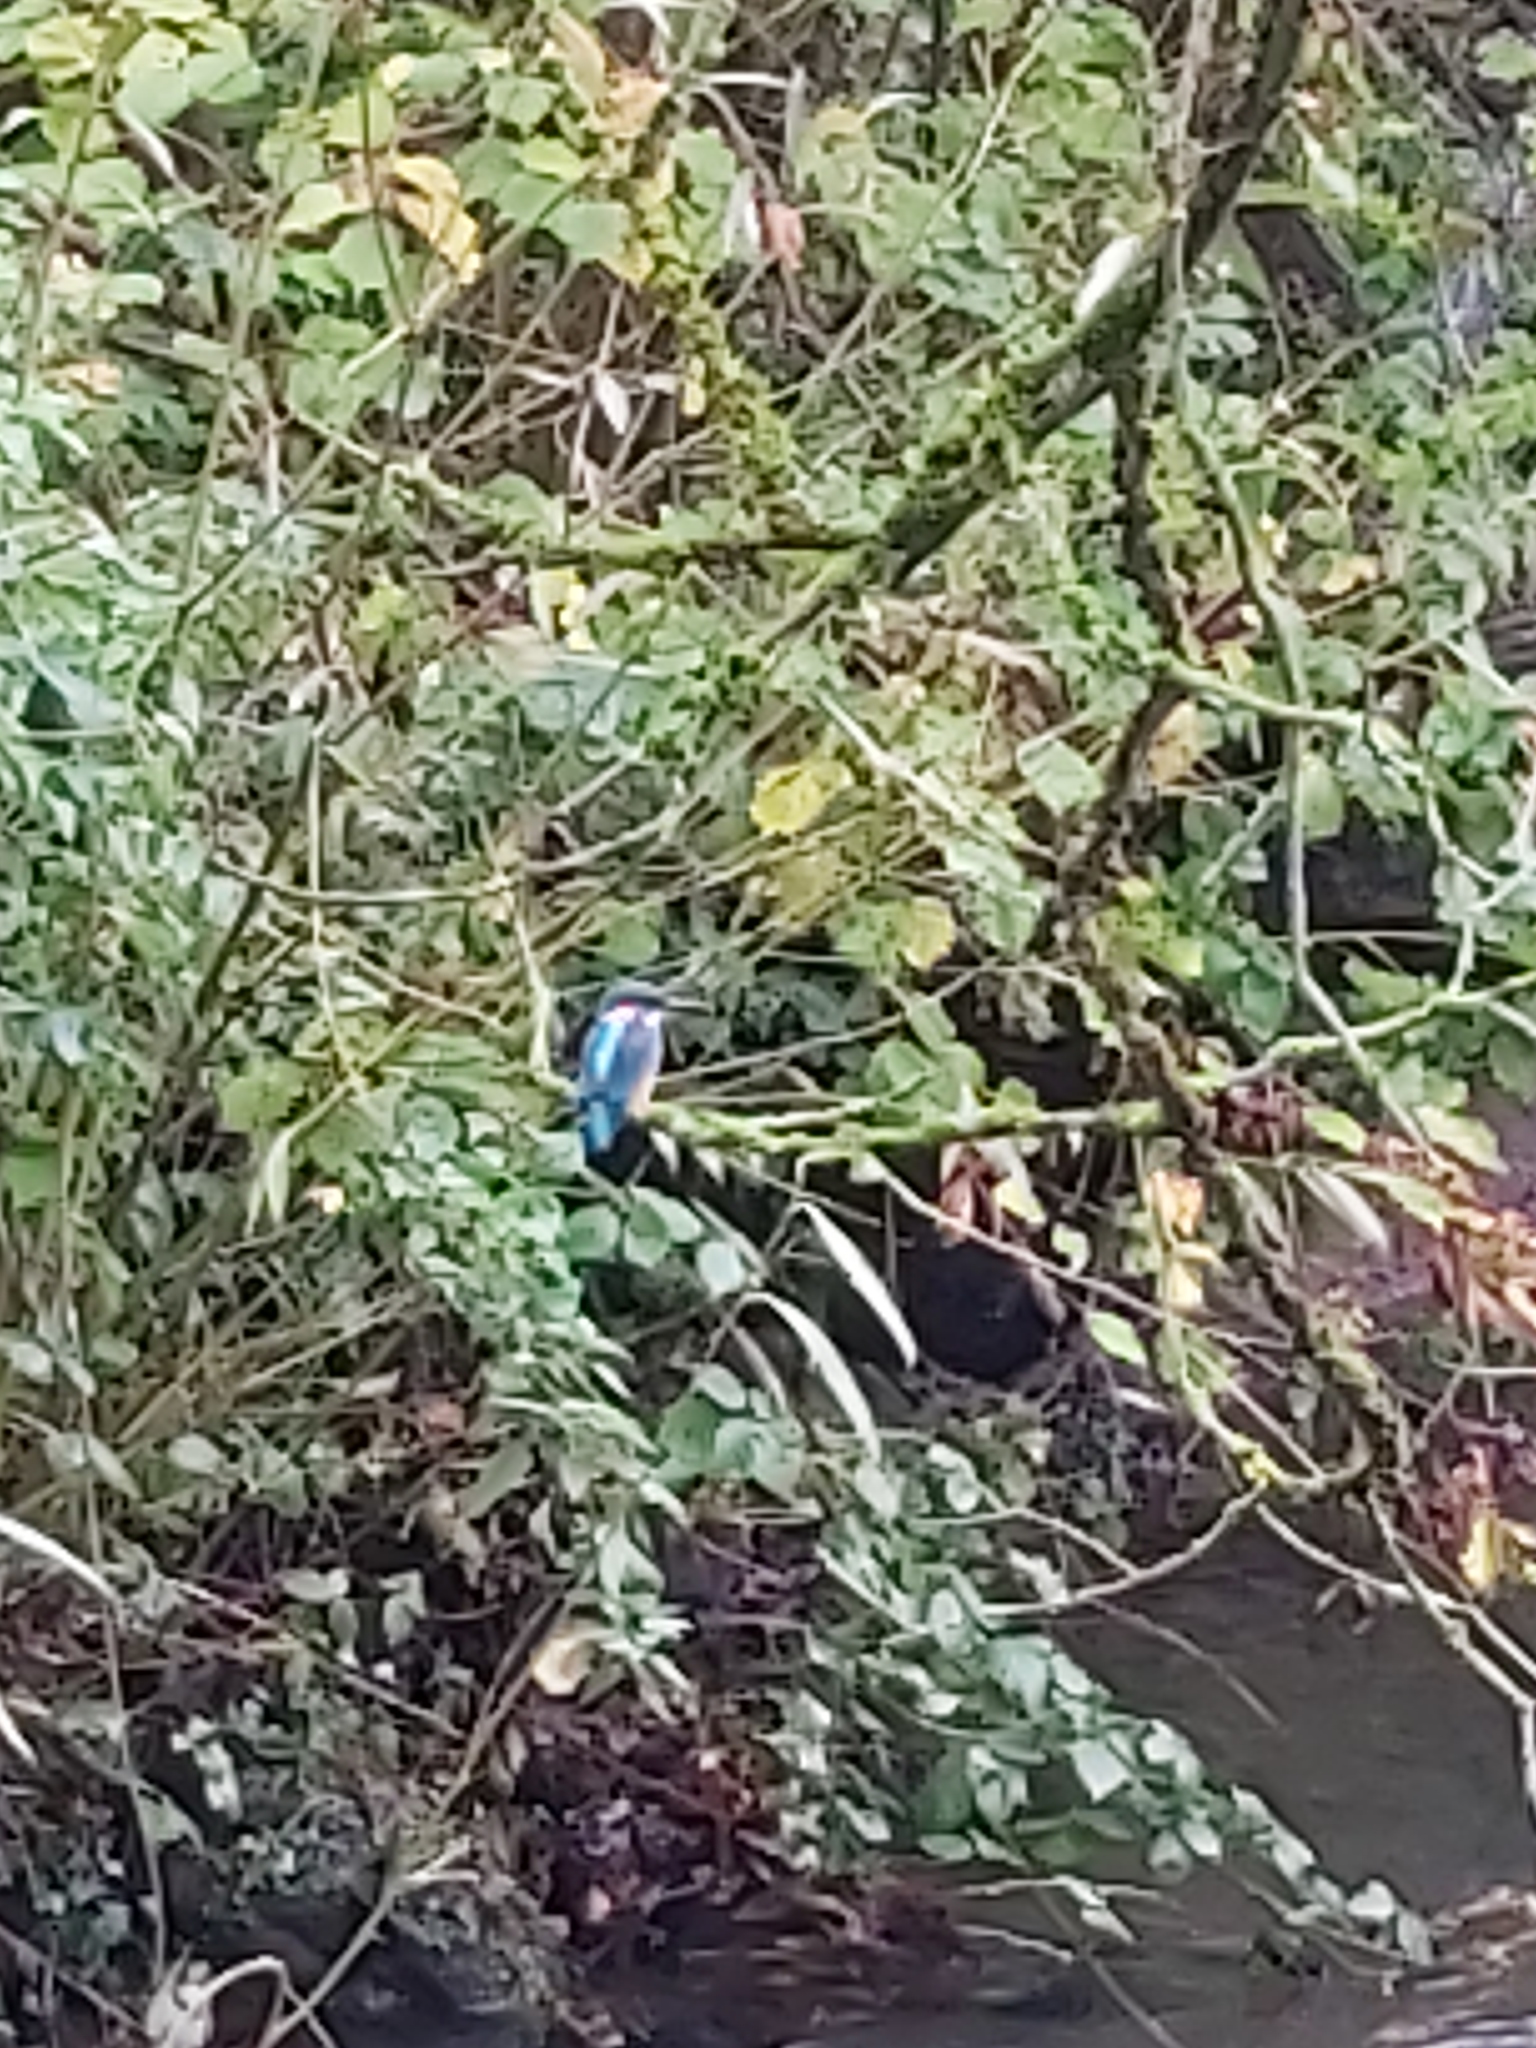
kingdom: Animalia
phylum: Chordata
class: Aves
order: Coraciiformes
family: Alcedinidae
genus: Alcedo
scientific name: Alcedo atthis
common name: Common kingfisher
